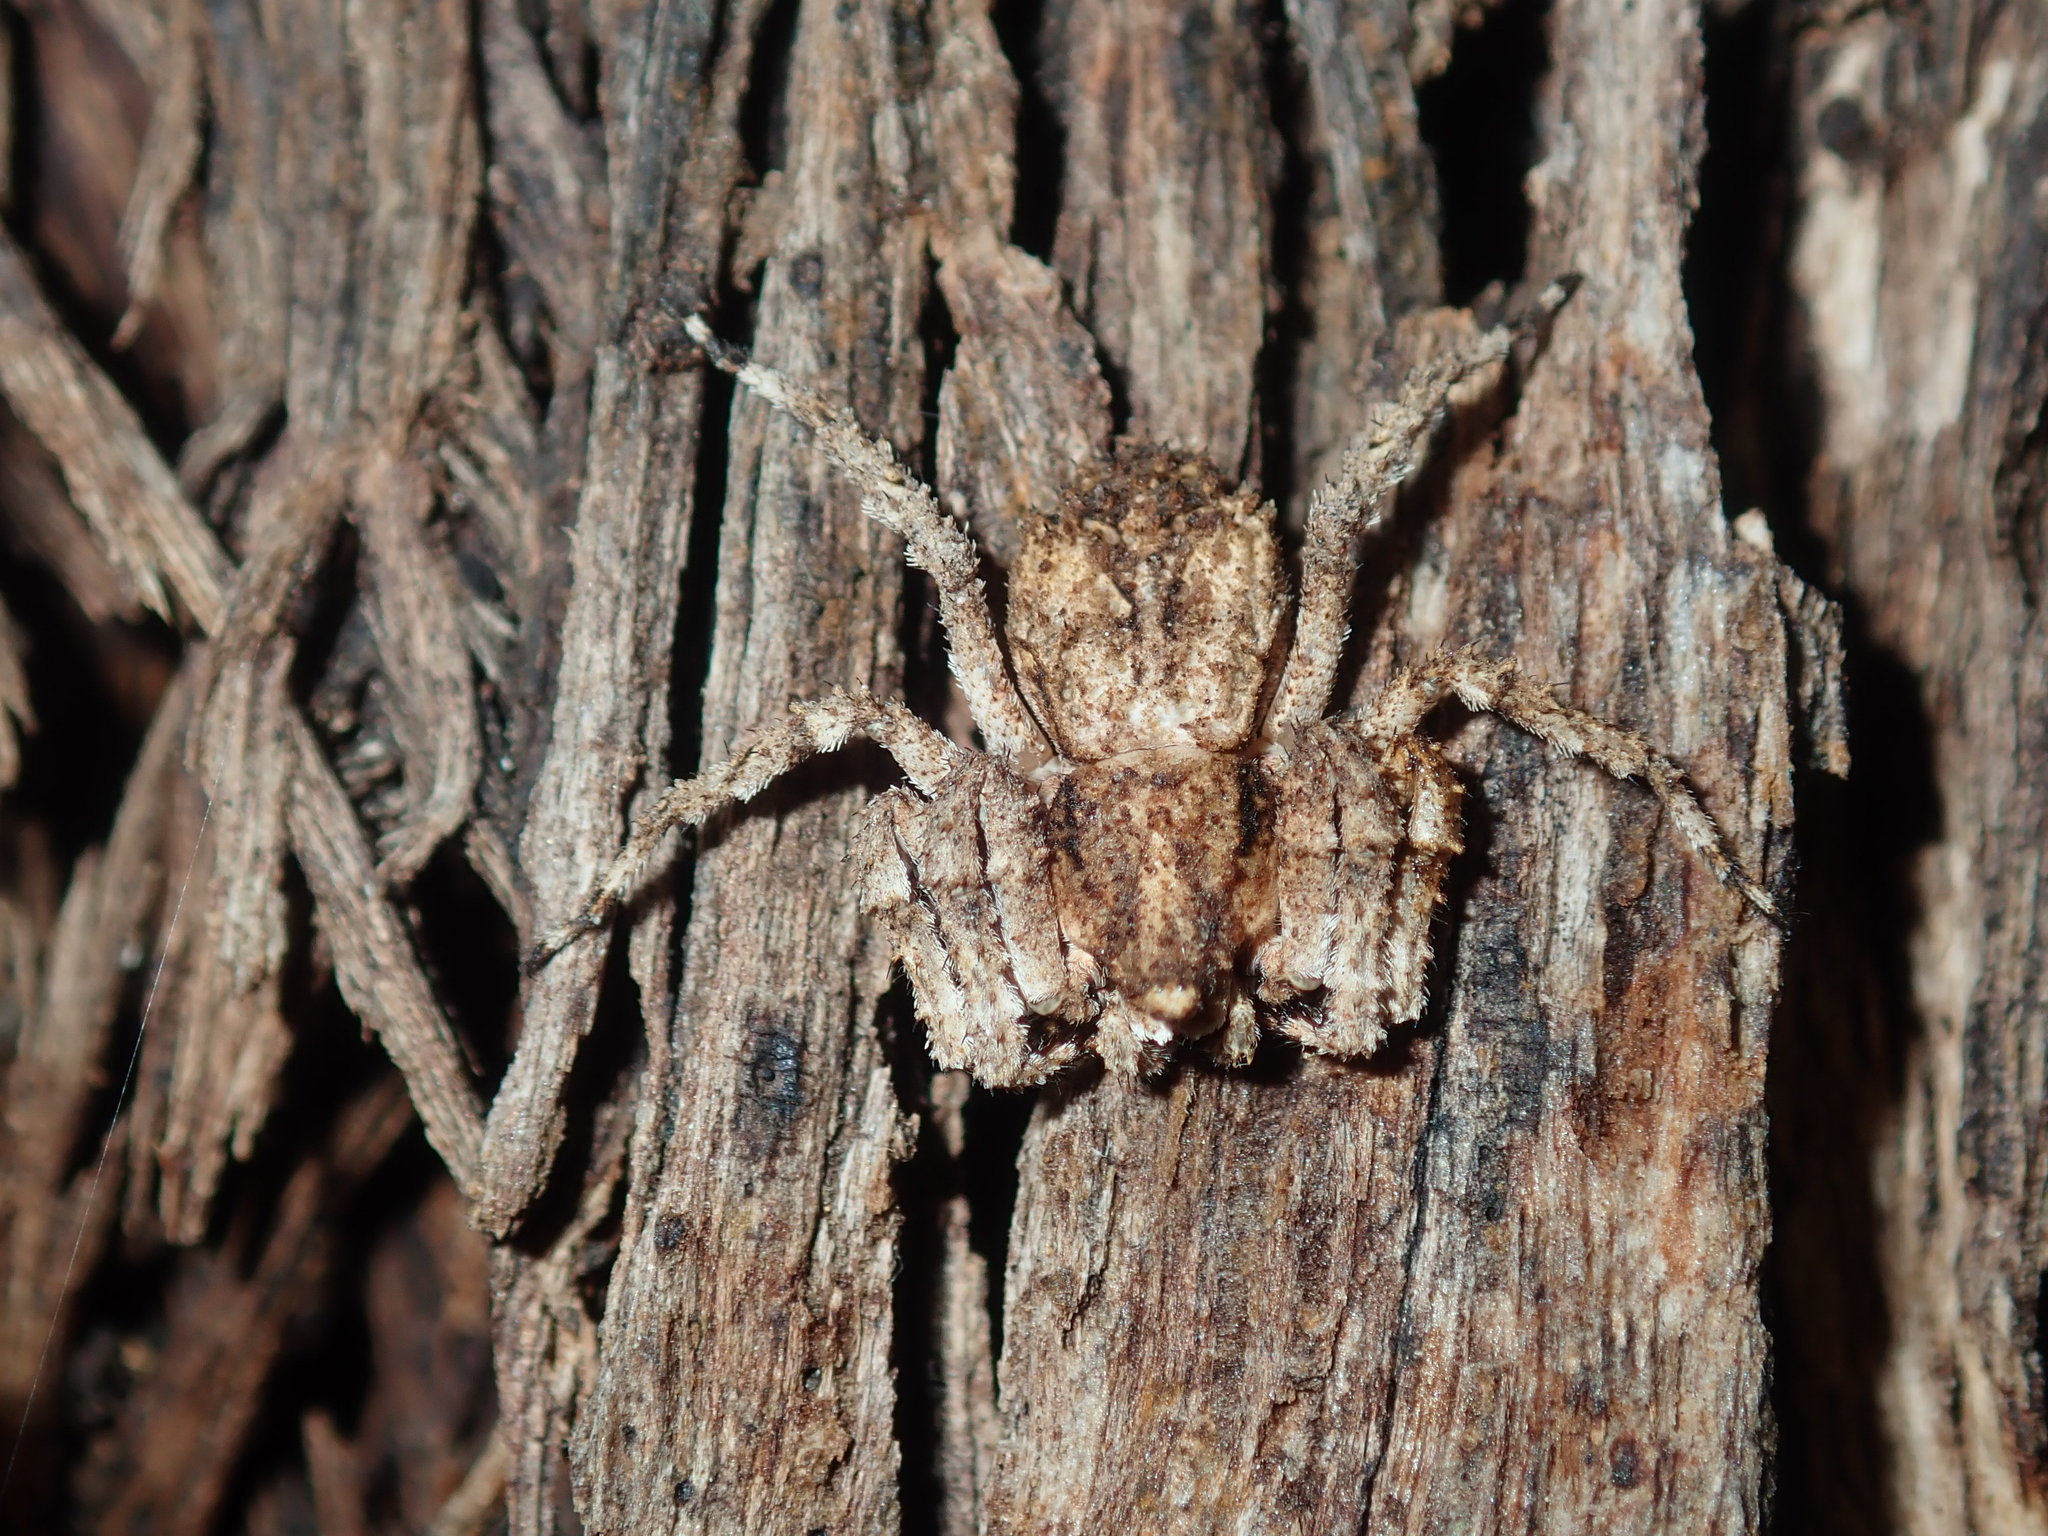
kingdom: Animalia
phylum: Arthropoda
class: Arachnida
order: Araneae
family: Thomisidae
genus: Stephanopis
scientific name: Stephanopis altifrons
